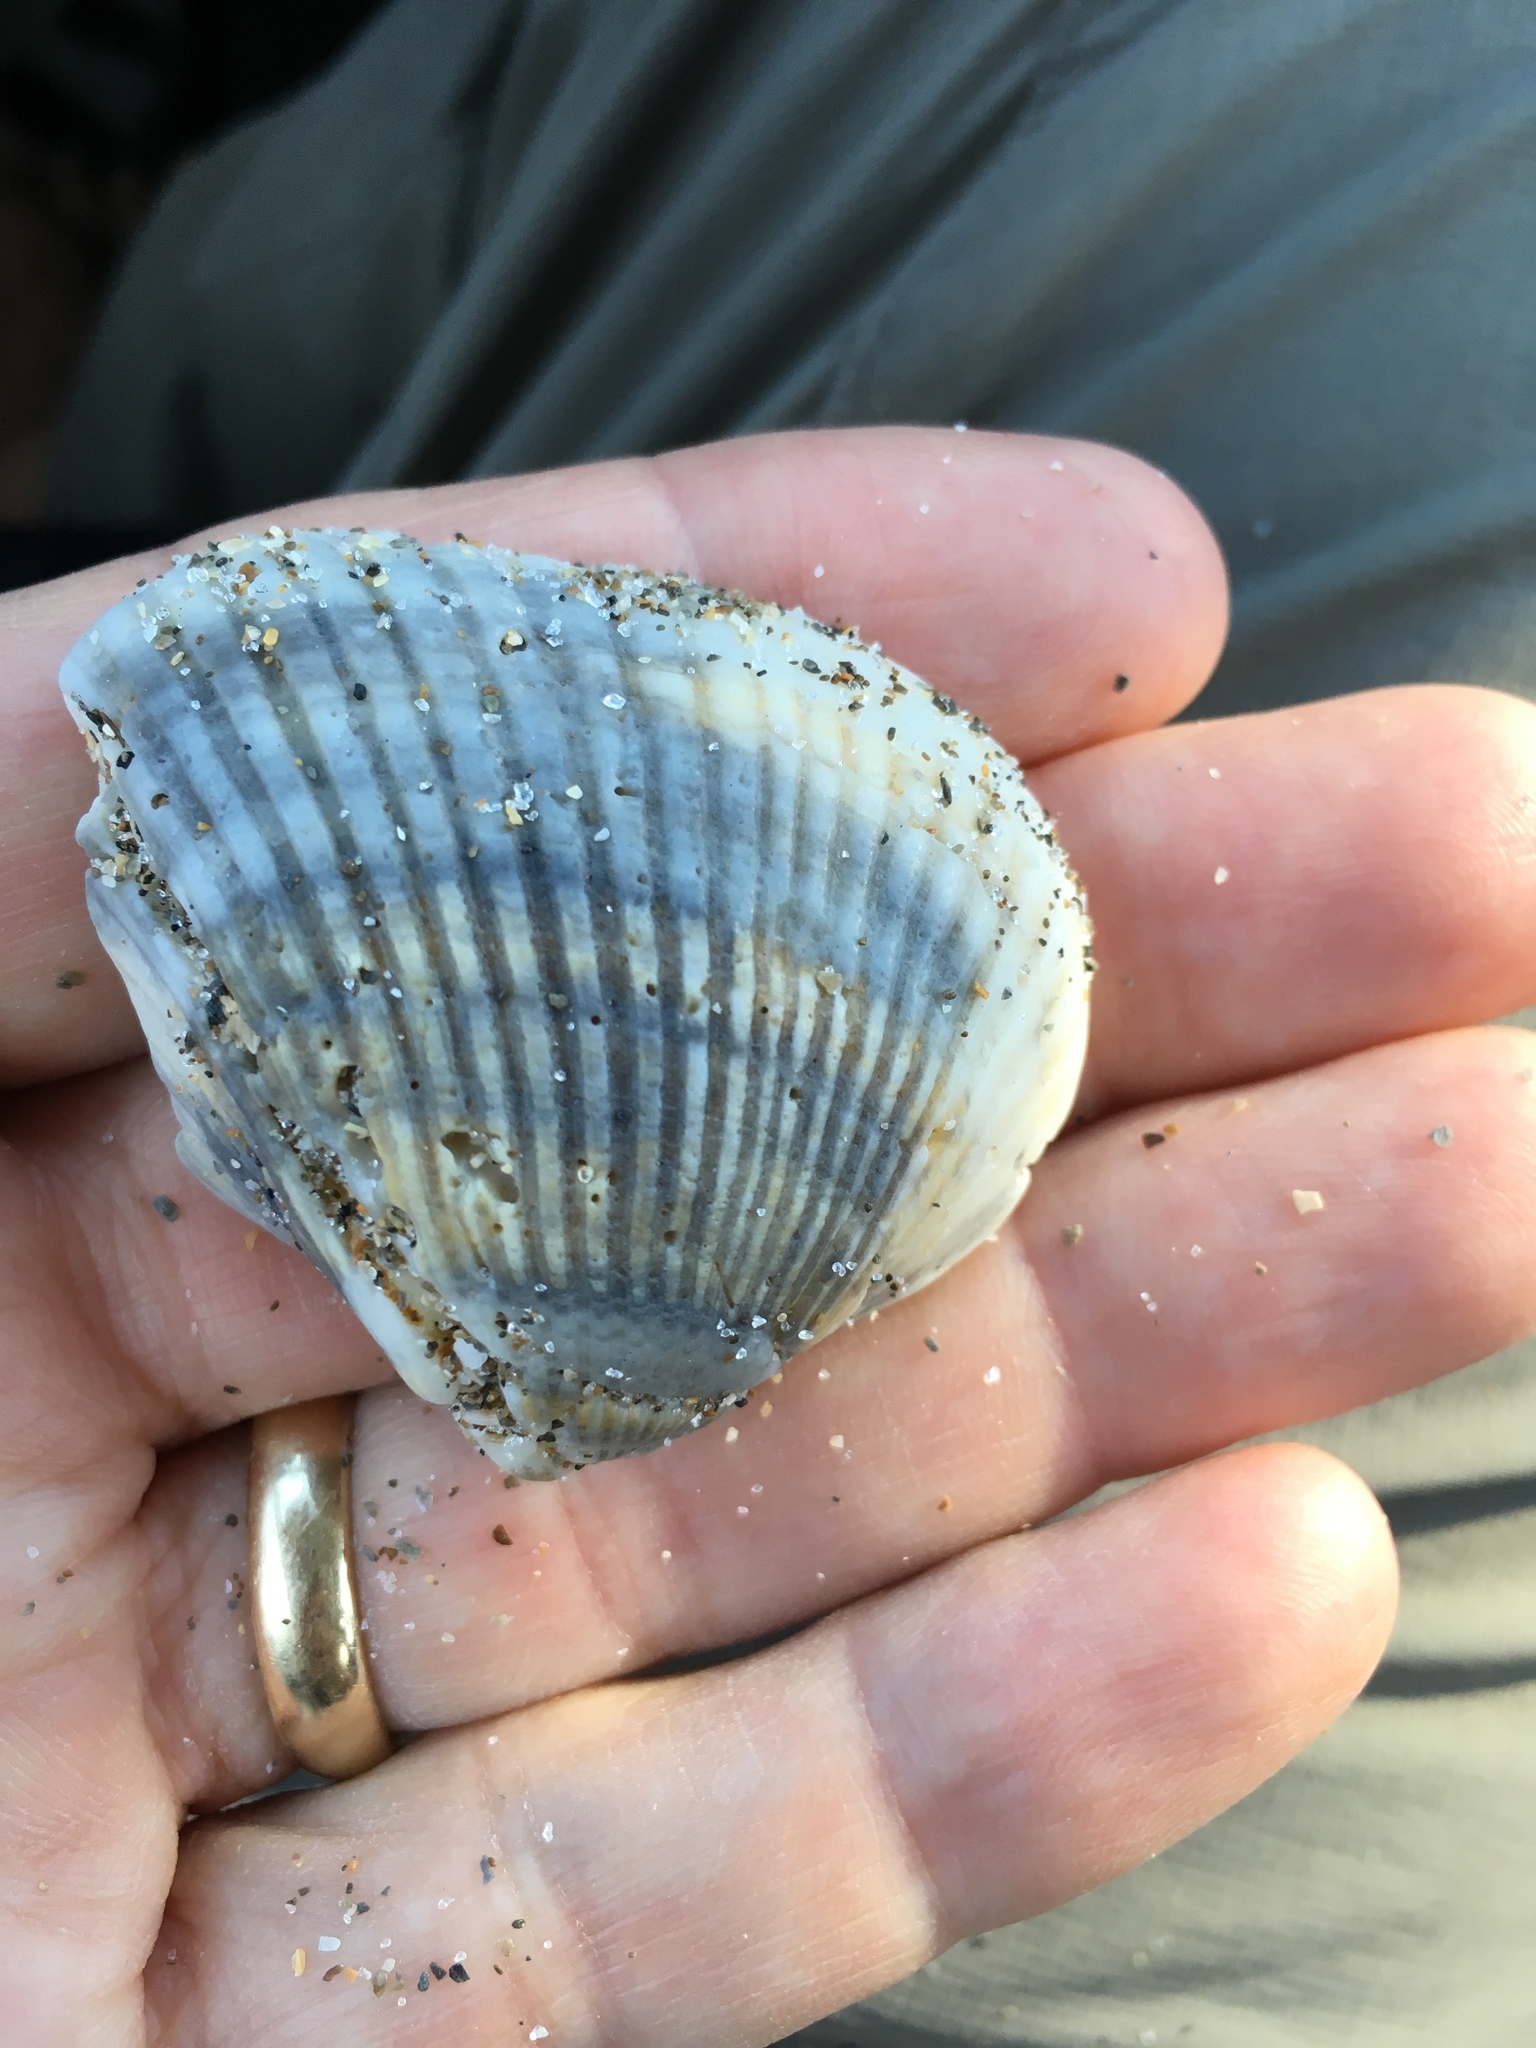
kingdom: Animalia
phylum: Mollusca
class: Bivalvia
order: Arcida
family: Noetiidae
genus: Noetia
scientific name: Noetia ponderosa
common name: Ponderous ark
